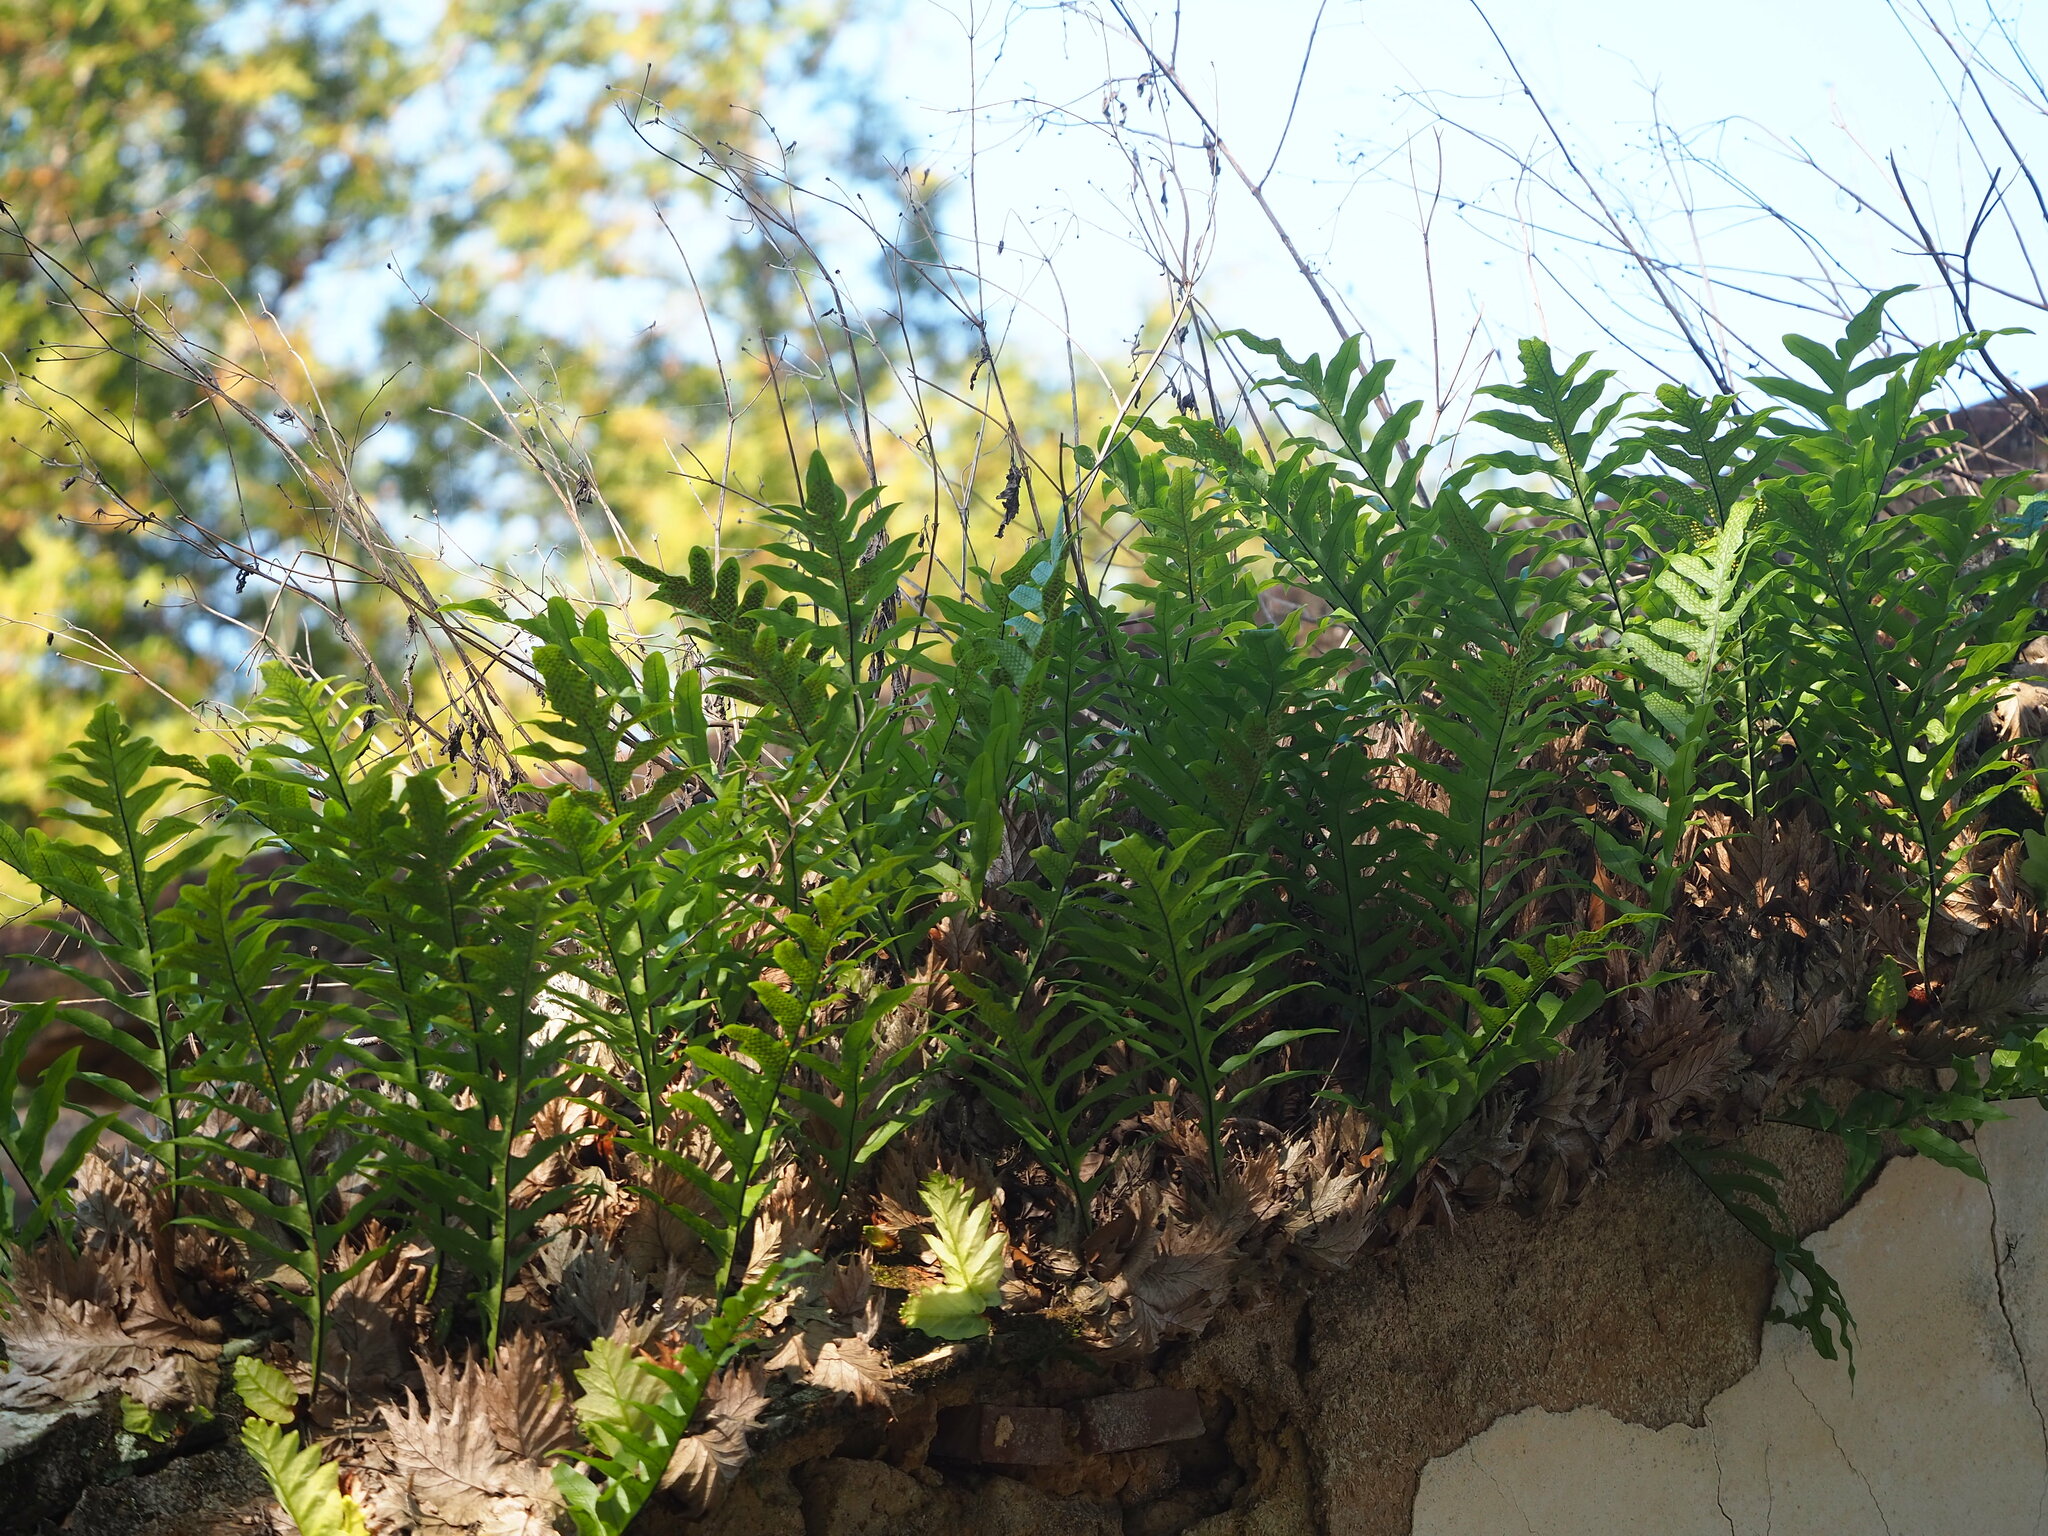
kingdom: Plantae
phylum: Tracheophyta
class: Polypodiopsida
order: Polypodiales
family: Polypodiaceae
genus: Drynaria
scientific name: Drynaria roosii
